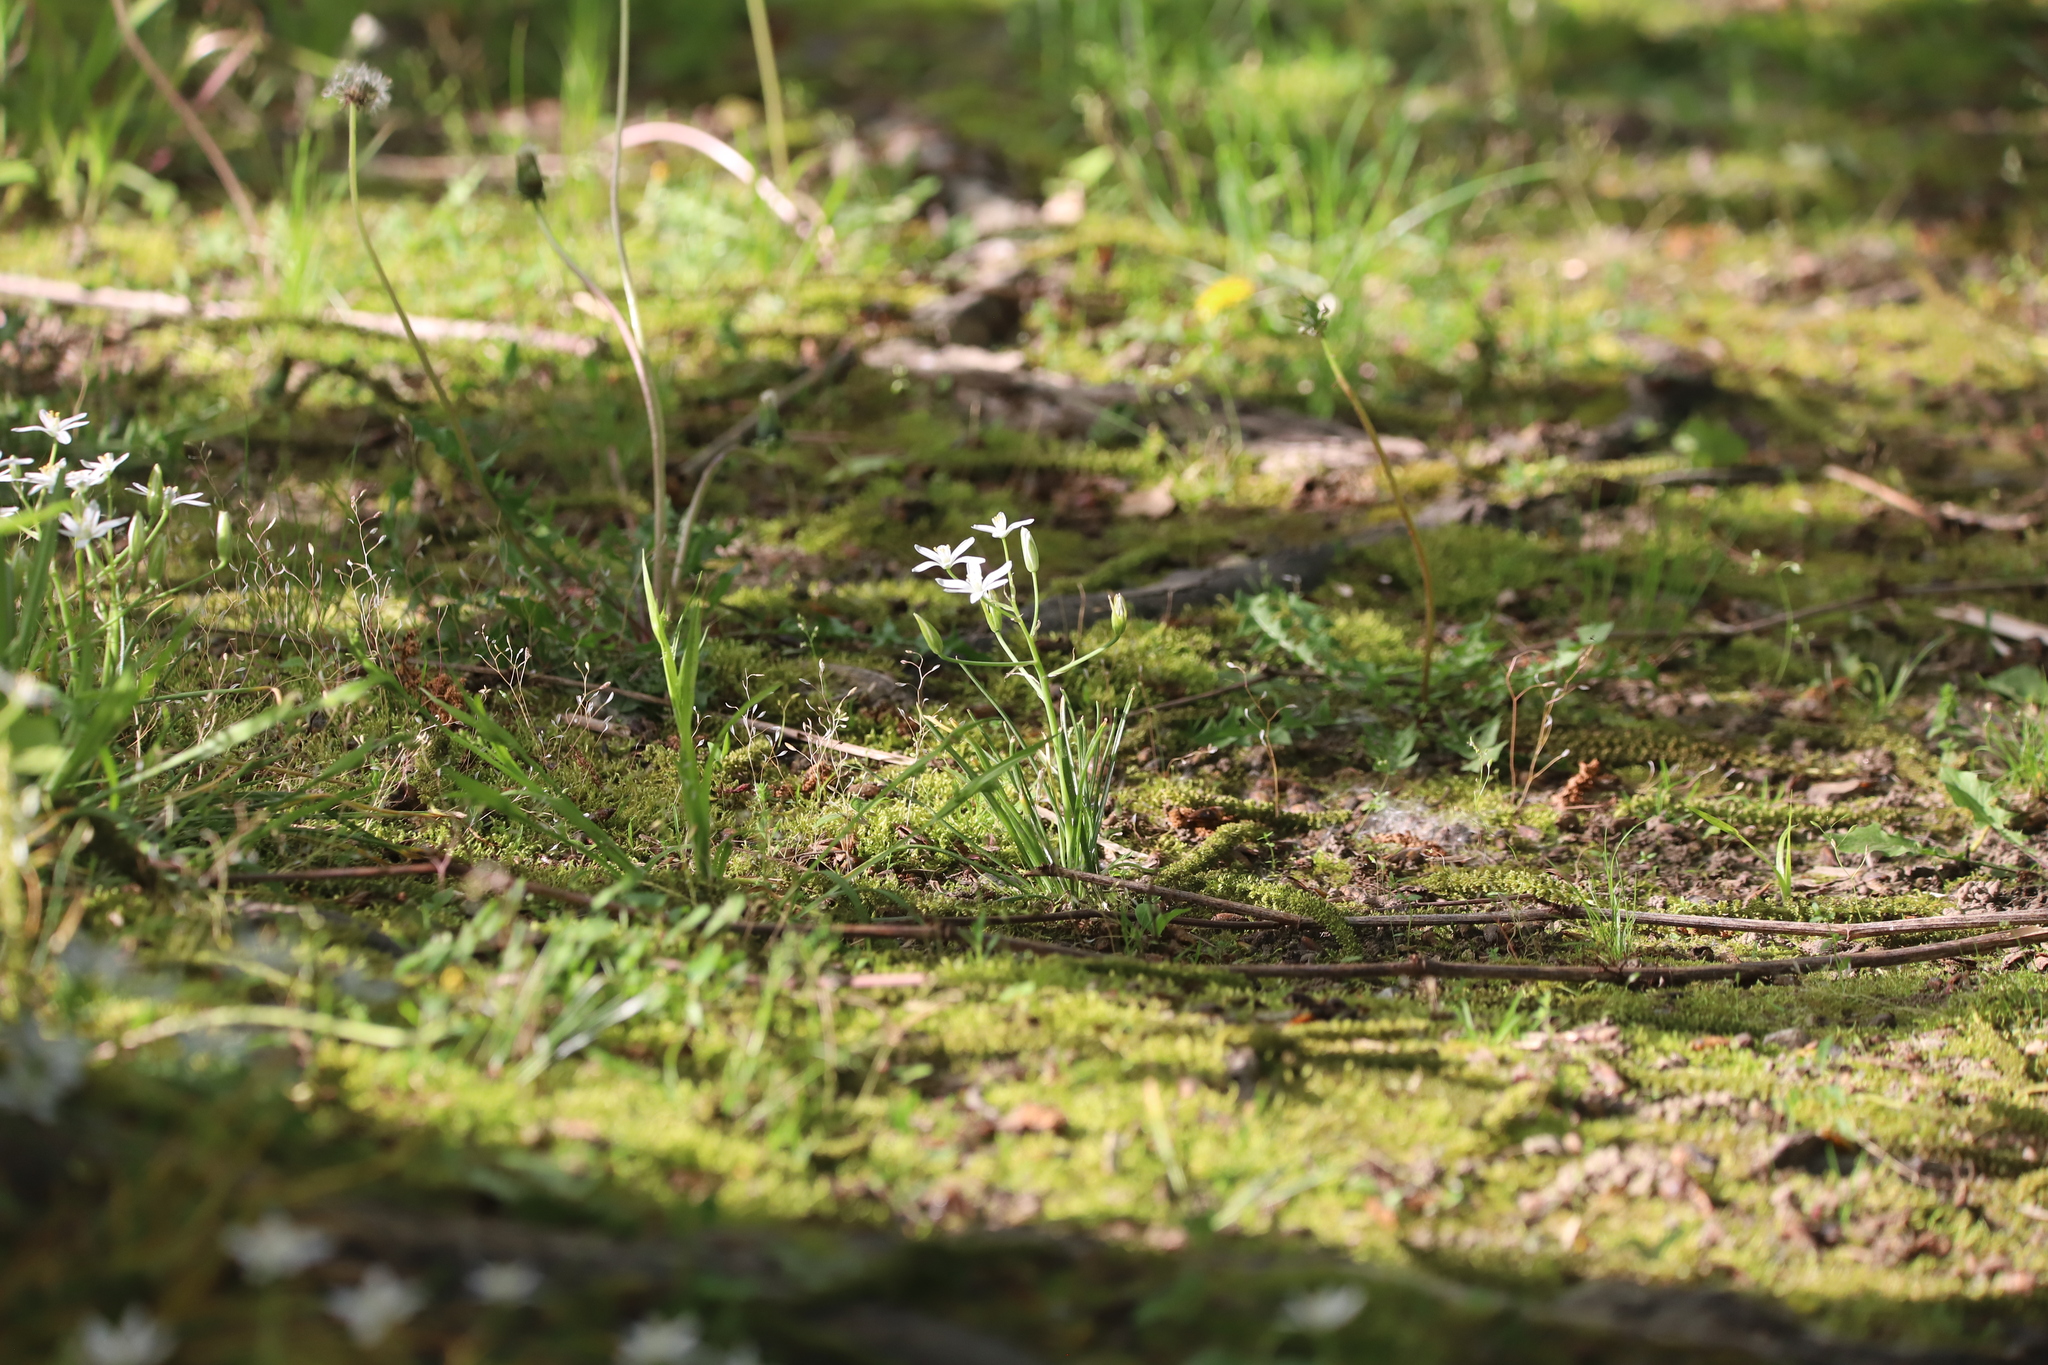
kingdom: Plantae
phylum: Tracheophyta
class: Liliopsida
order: Asparagales
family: Asparagaceae
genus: Ornithogalum
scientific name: Ornithogalum umbellatum
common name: Garden star-of-bethlehem
